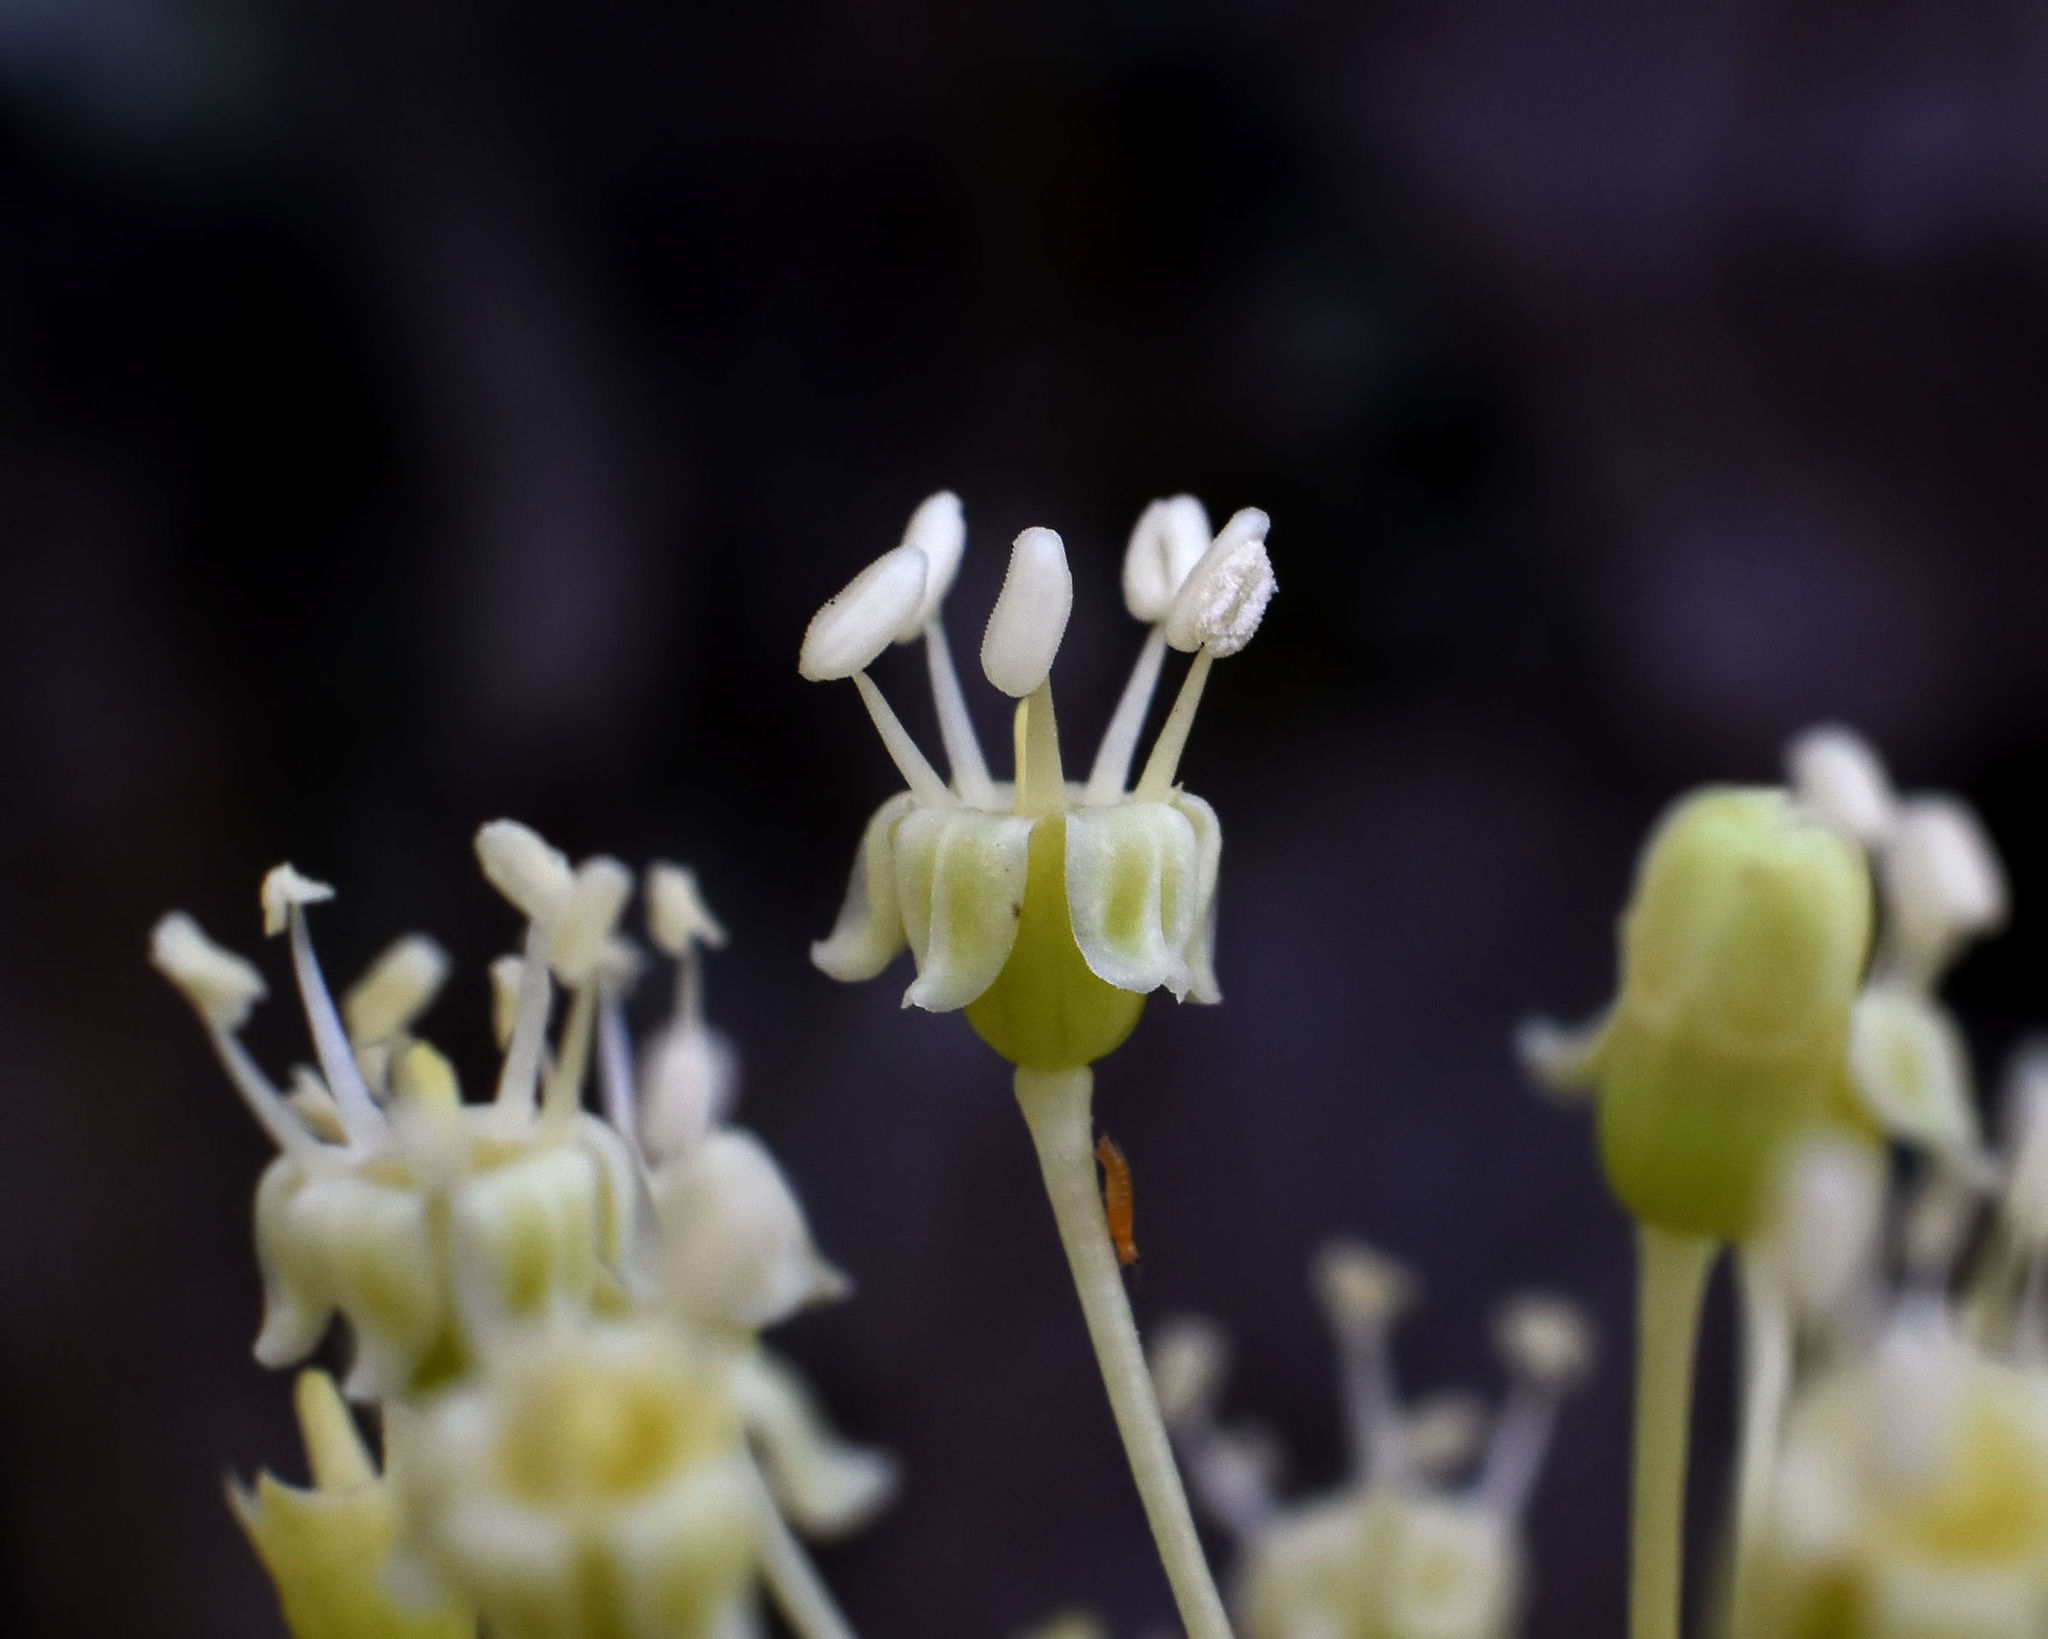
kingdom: Plantae
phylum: Tracheophyta
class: Magnoliopsida
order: Apiales
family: Araliaceae
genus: Aralia
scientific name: Aralia hispida
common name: Bristly sarsaparilla
